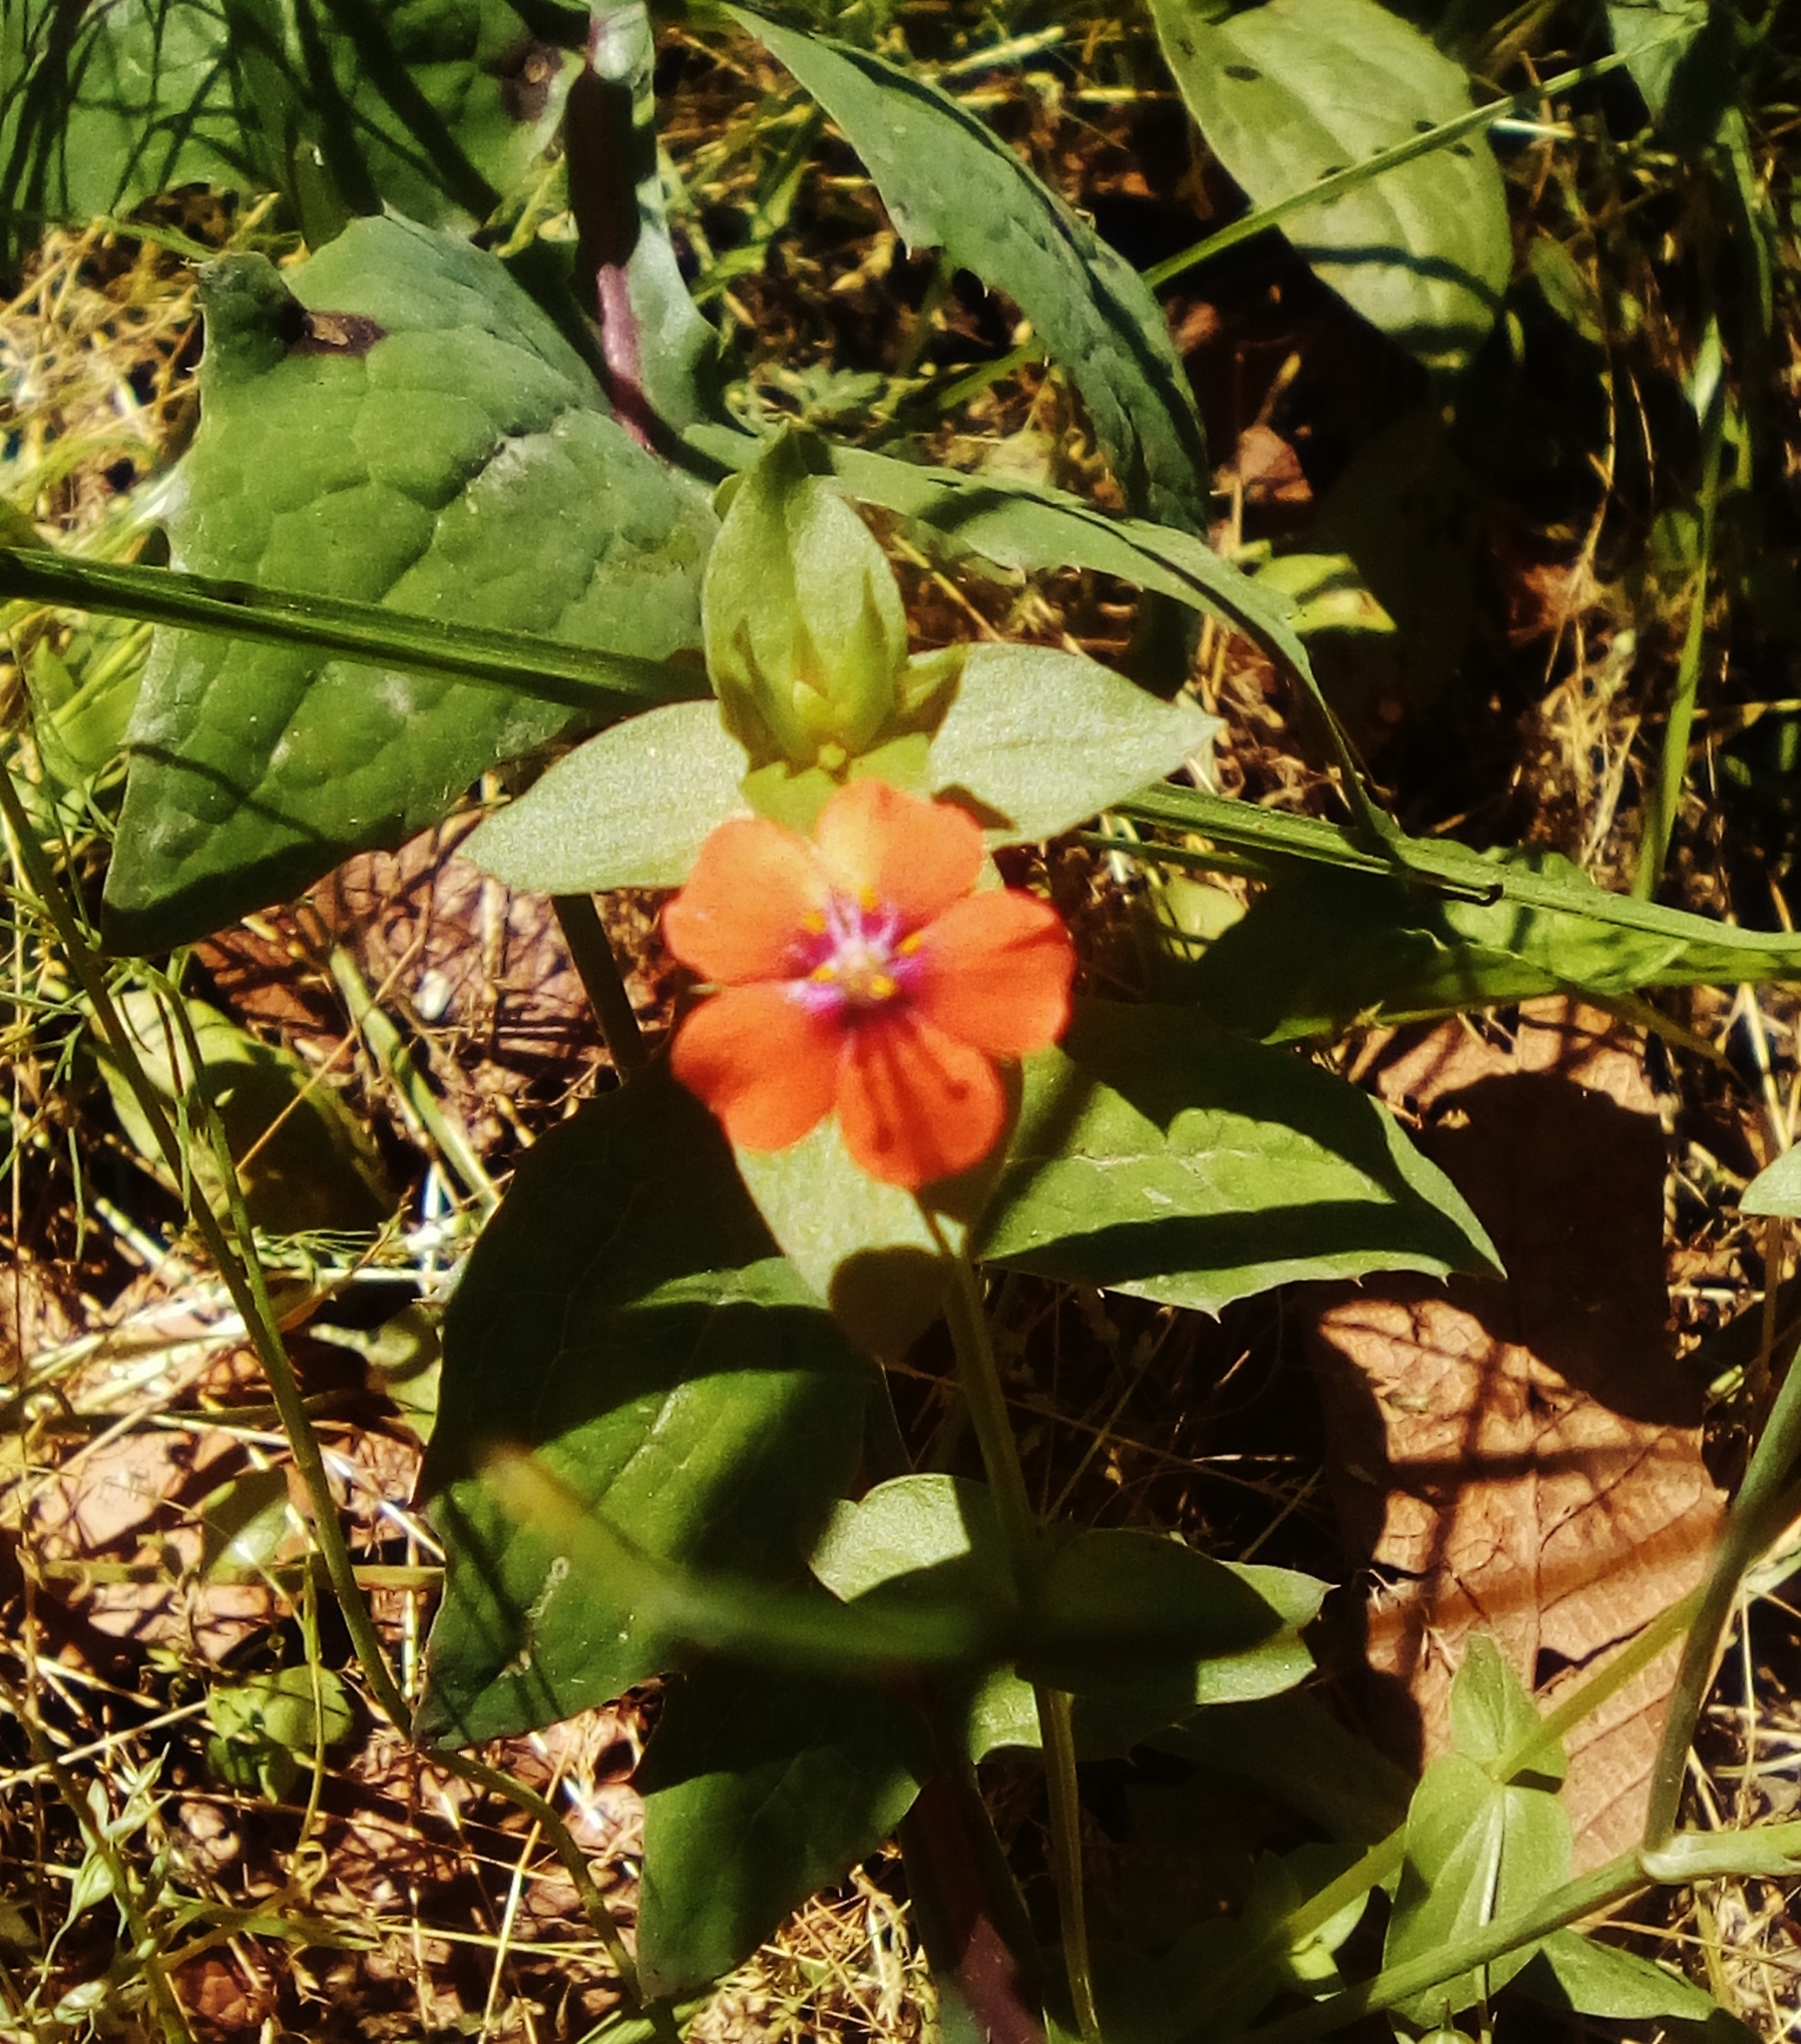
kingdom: Plantae
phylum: Tracheophyta
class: Magnoliopsida
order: Ericales
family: Primulaceae
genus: Lysimachia
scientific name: Lysimachia arvensis
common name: Scarlet pimpernel
